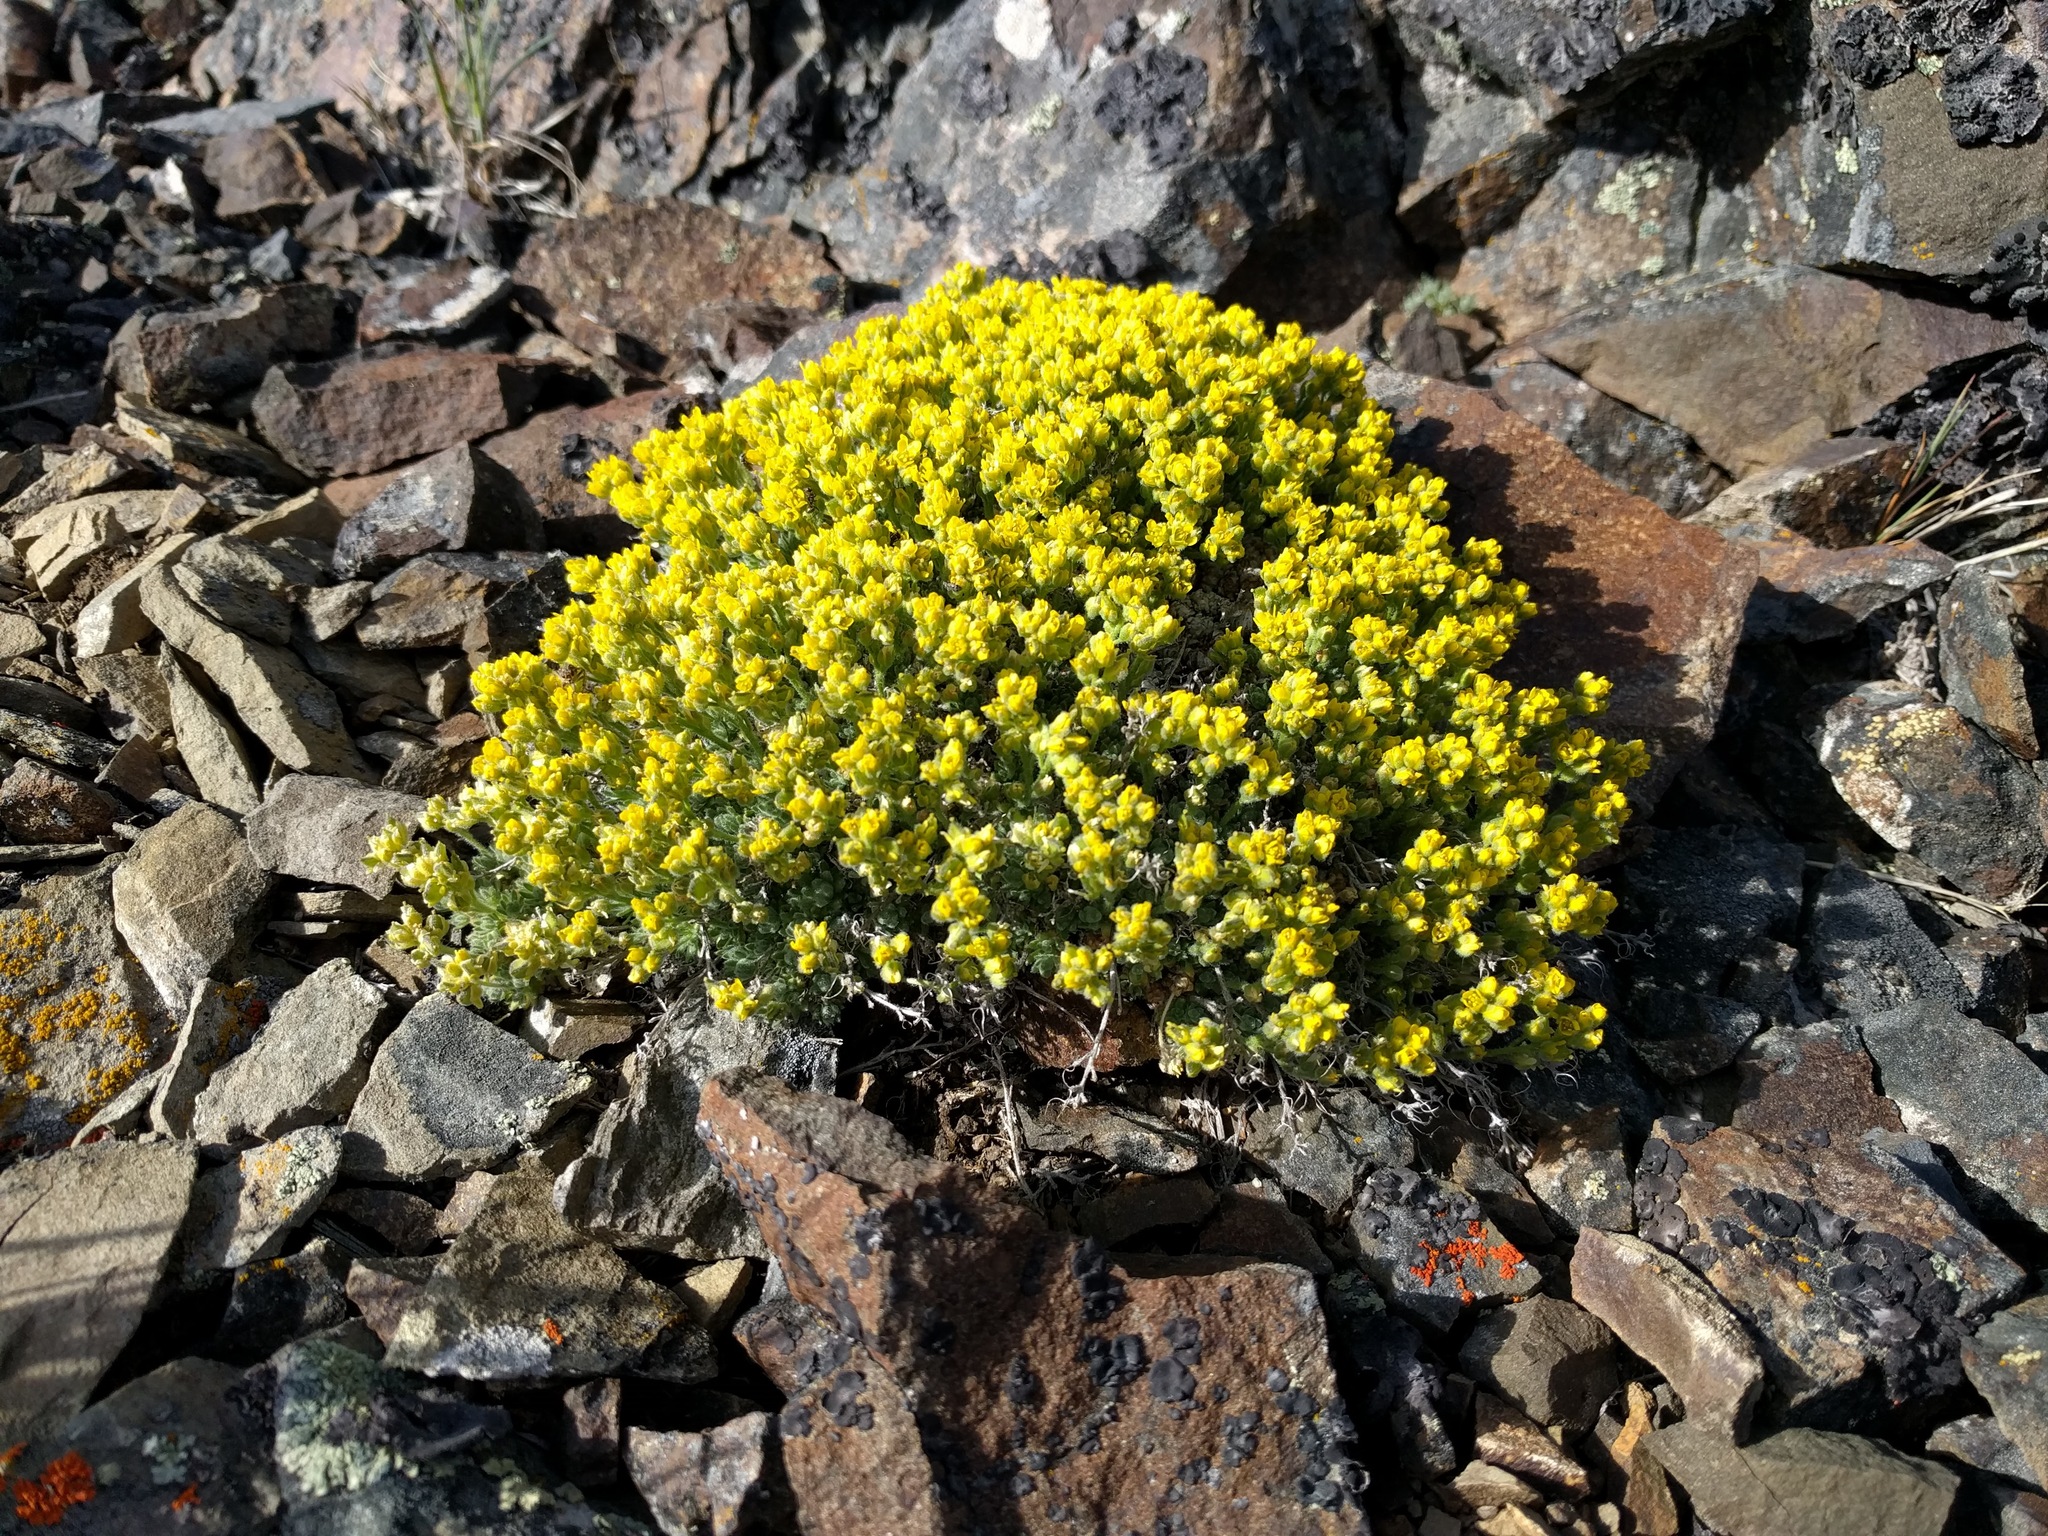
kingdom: Plantae
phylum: Tracheophyta
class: Magnoliopsida
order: Brassicales
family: Brassicaceae
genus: Draba
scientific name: Draba densifolia
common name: Nuttall's draba
